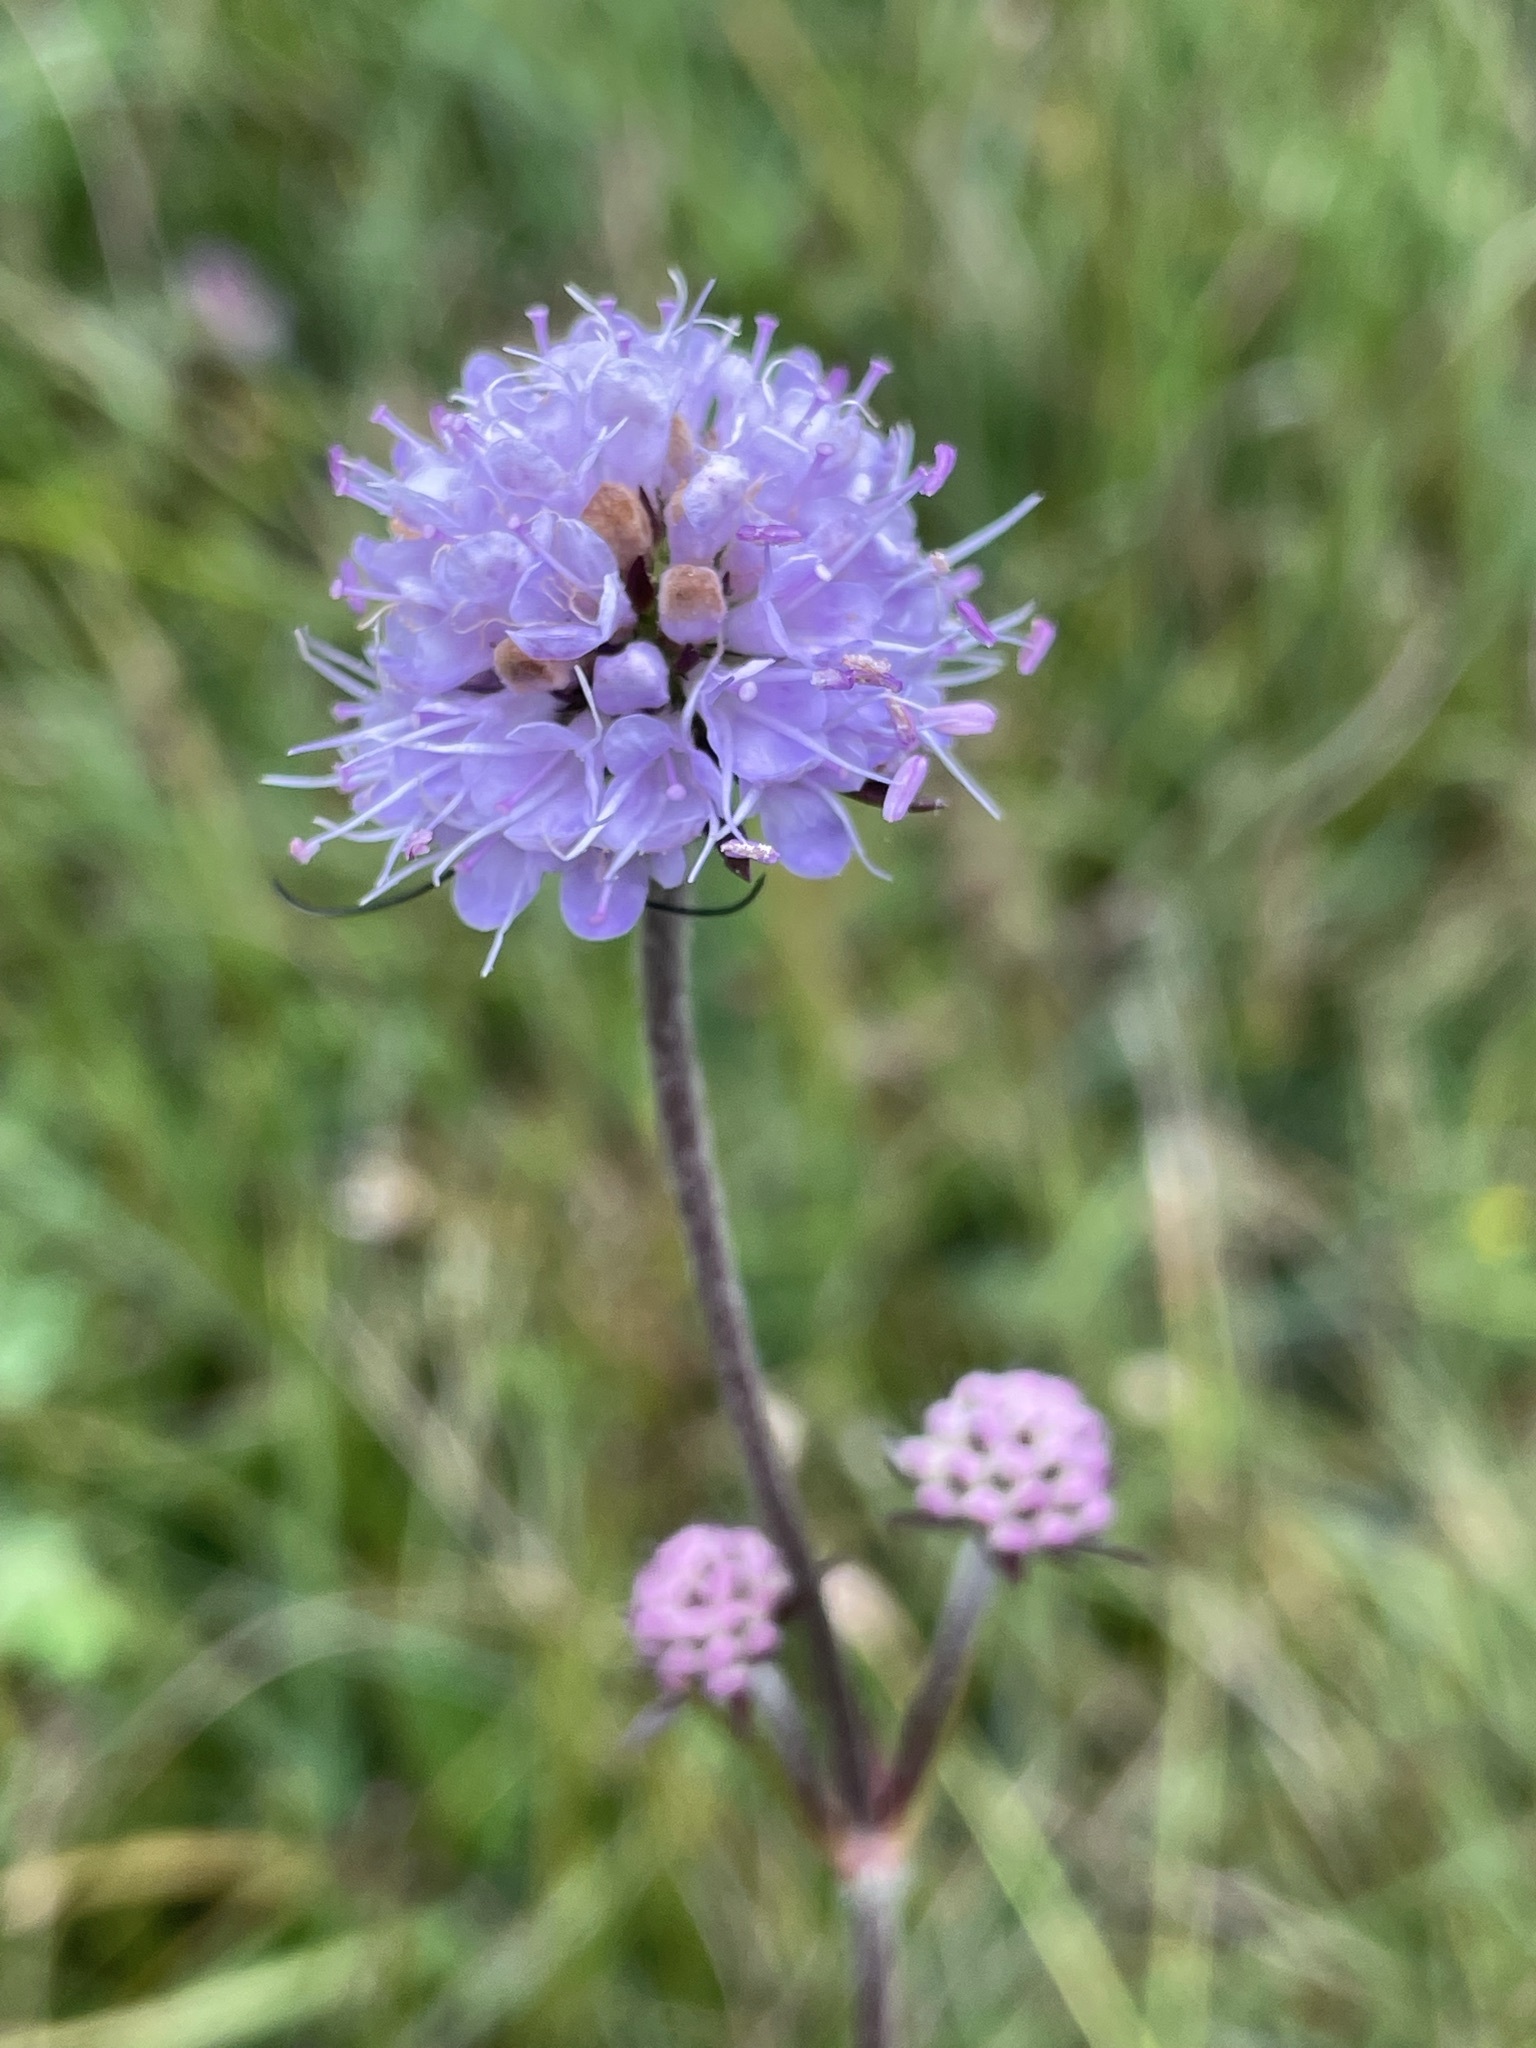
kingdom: Plantae
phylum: Tracheophyta
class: Magnoliopsida
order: Dipsacales
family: Caprifoliaceae
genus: Succisa
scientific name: Succisa pratensis
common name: Devil's-bit
